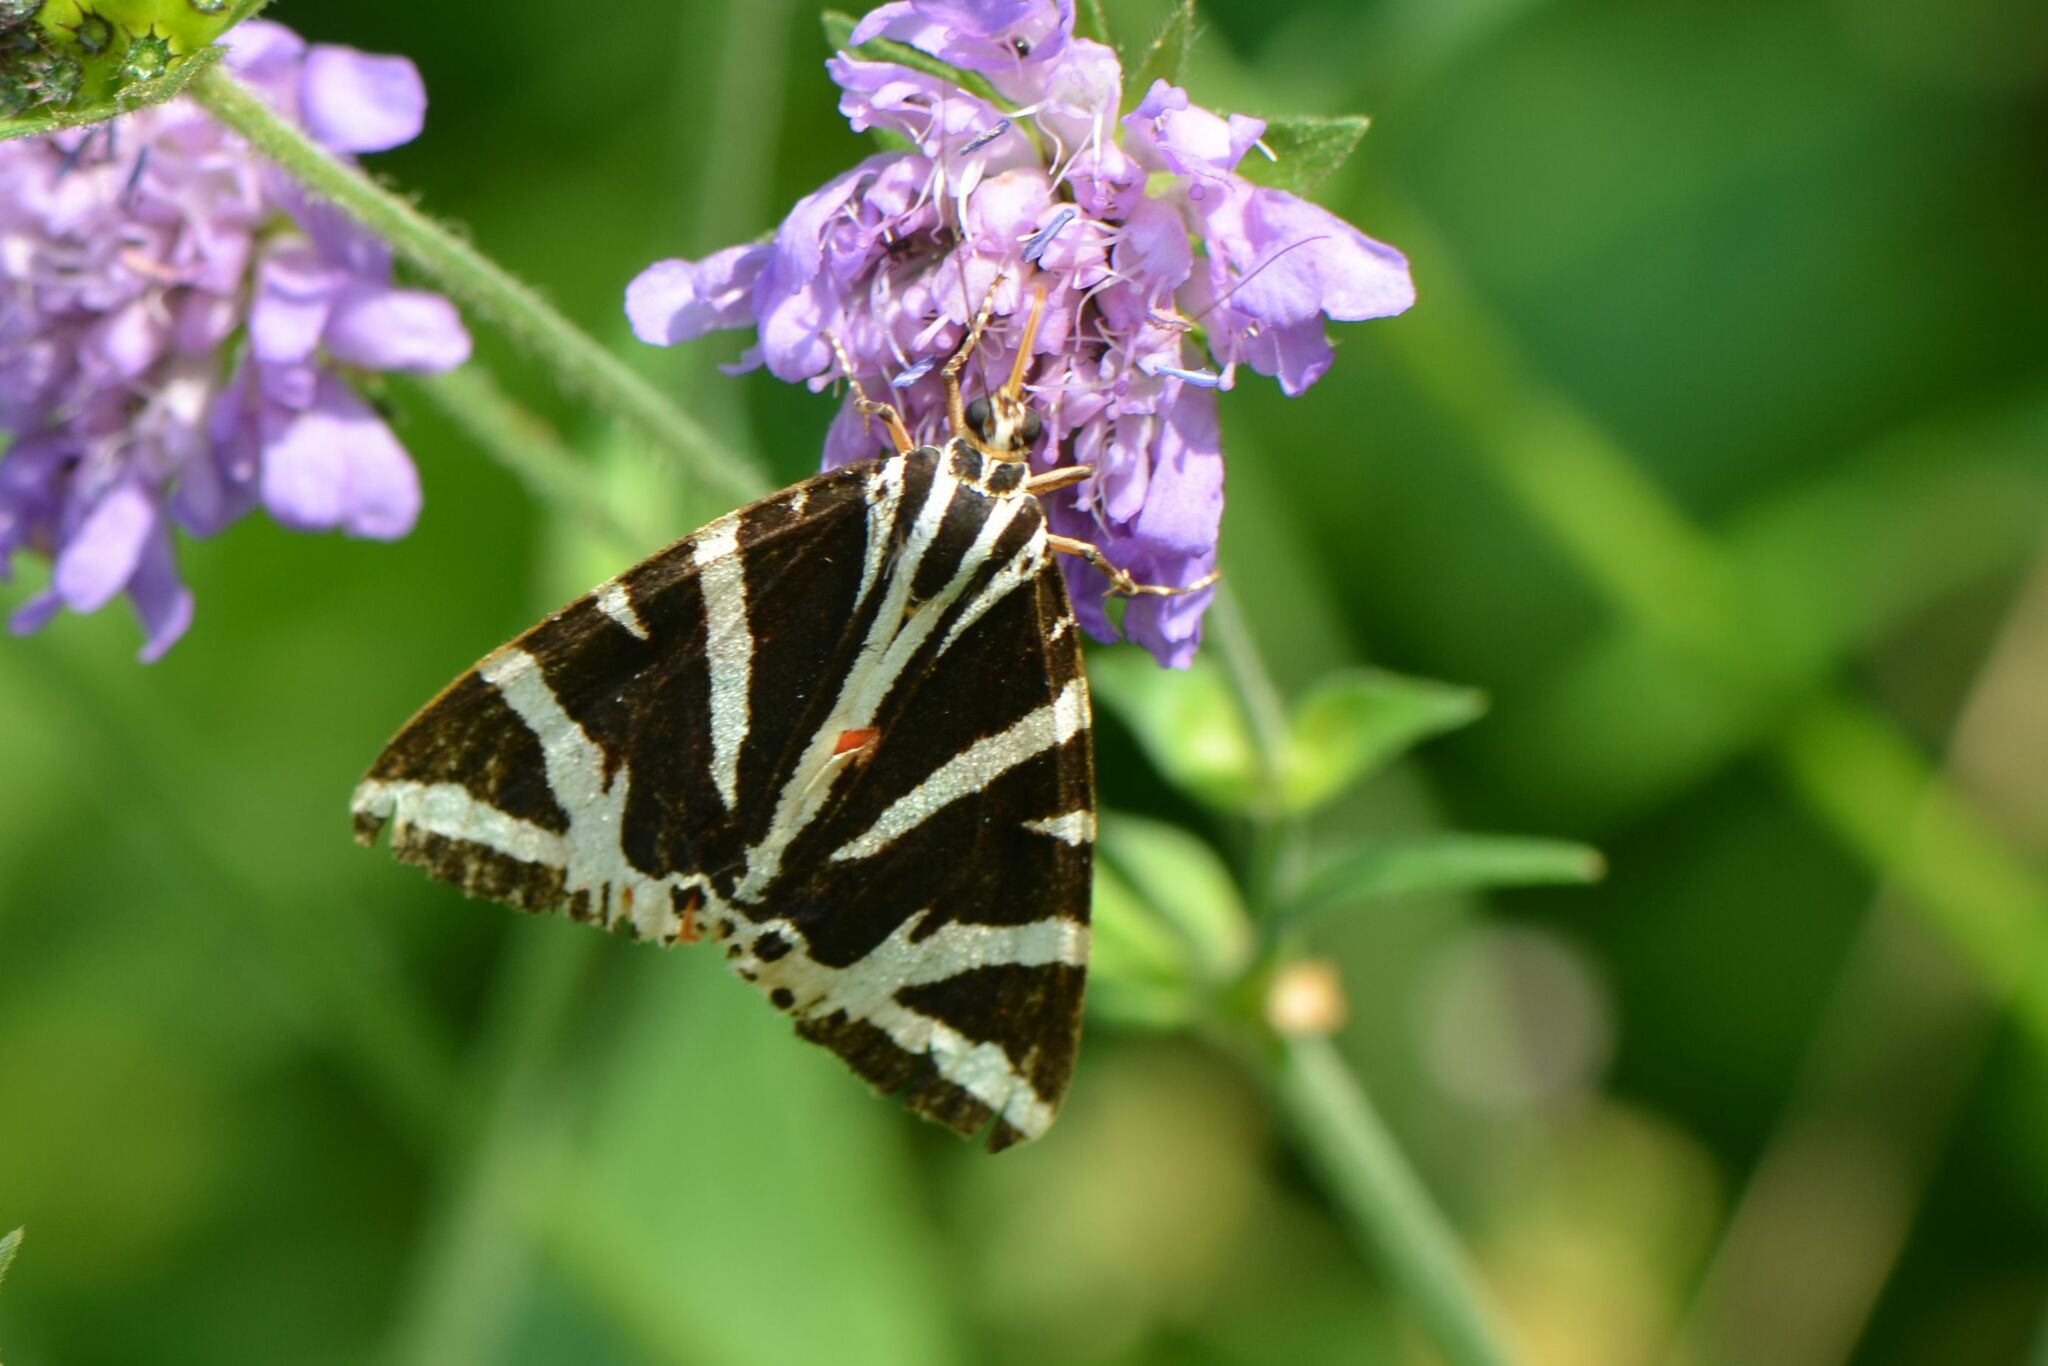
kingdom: Animalia
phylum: Arthropoda
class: Insecta
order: Lepidoptera
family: Erebidae
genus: Euplagia
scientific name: Euplagia quadripunctaria
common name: Jersey tiger
